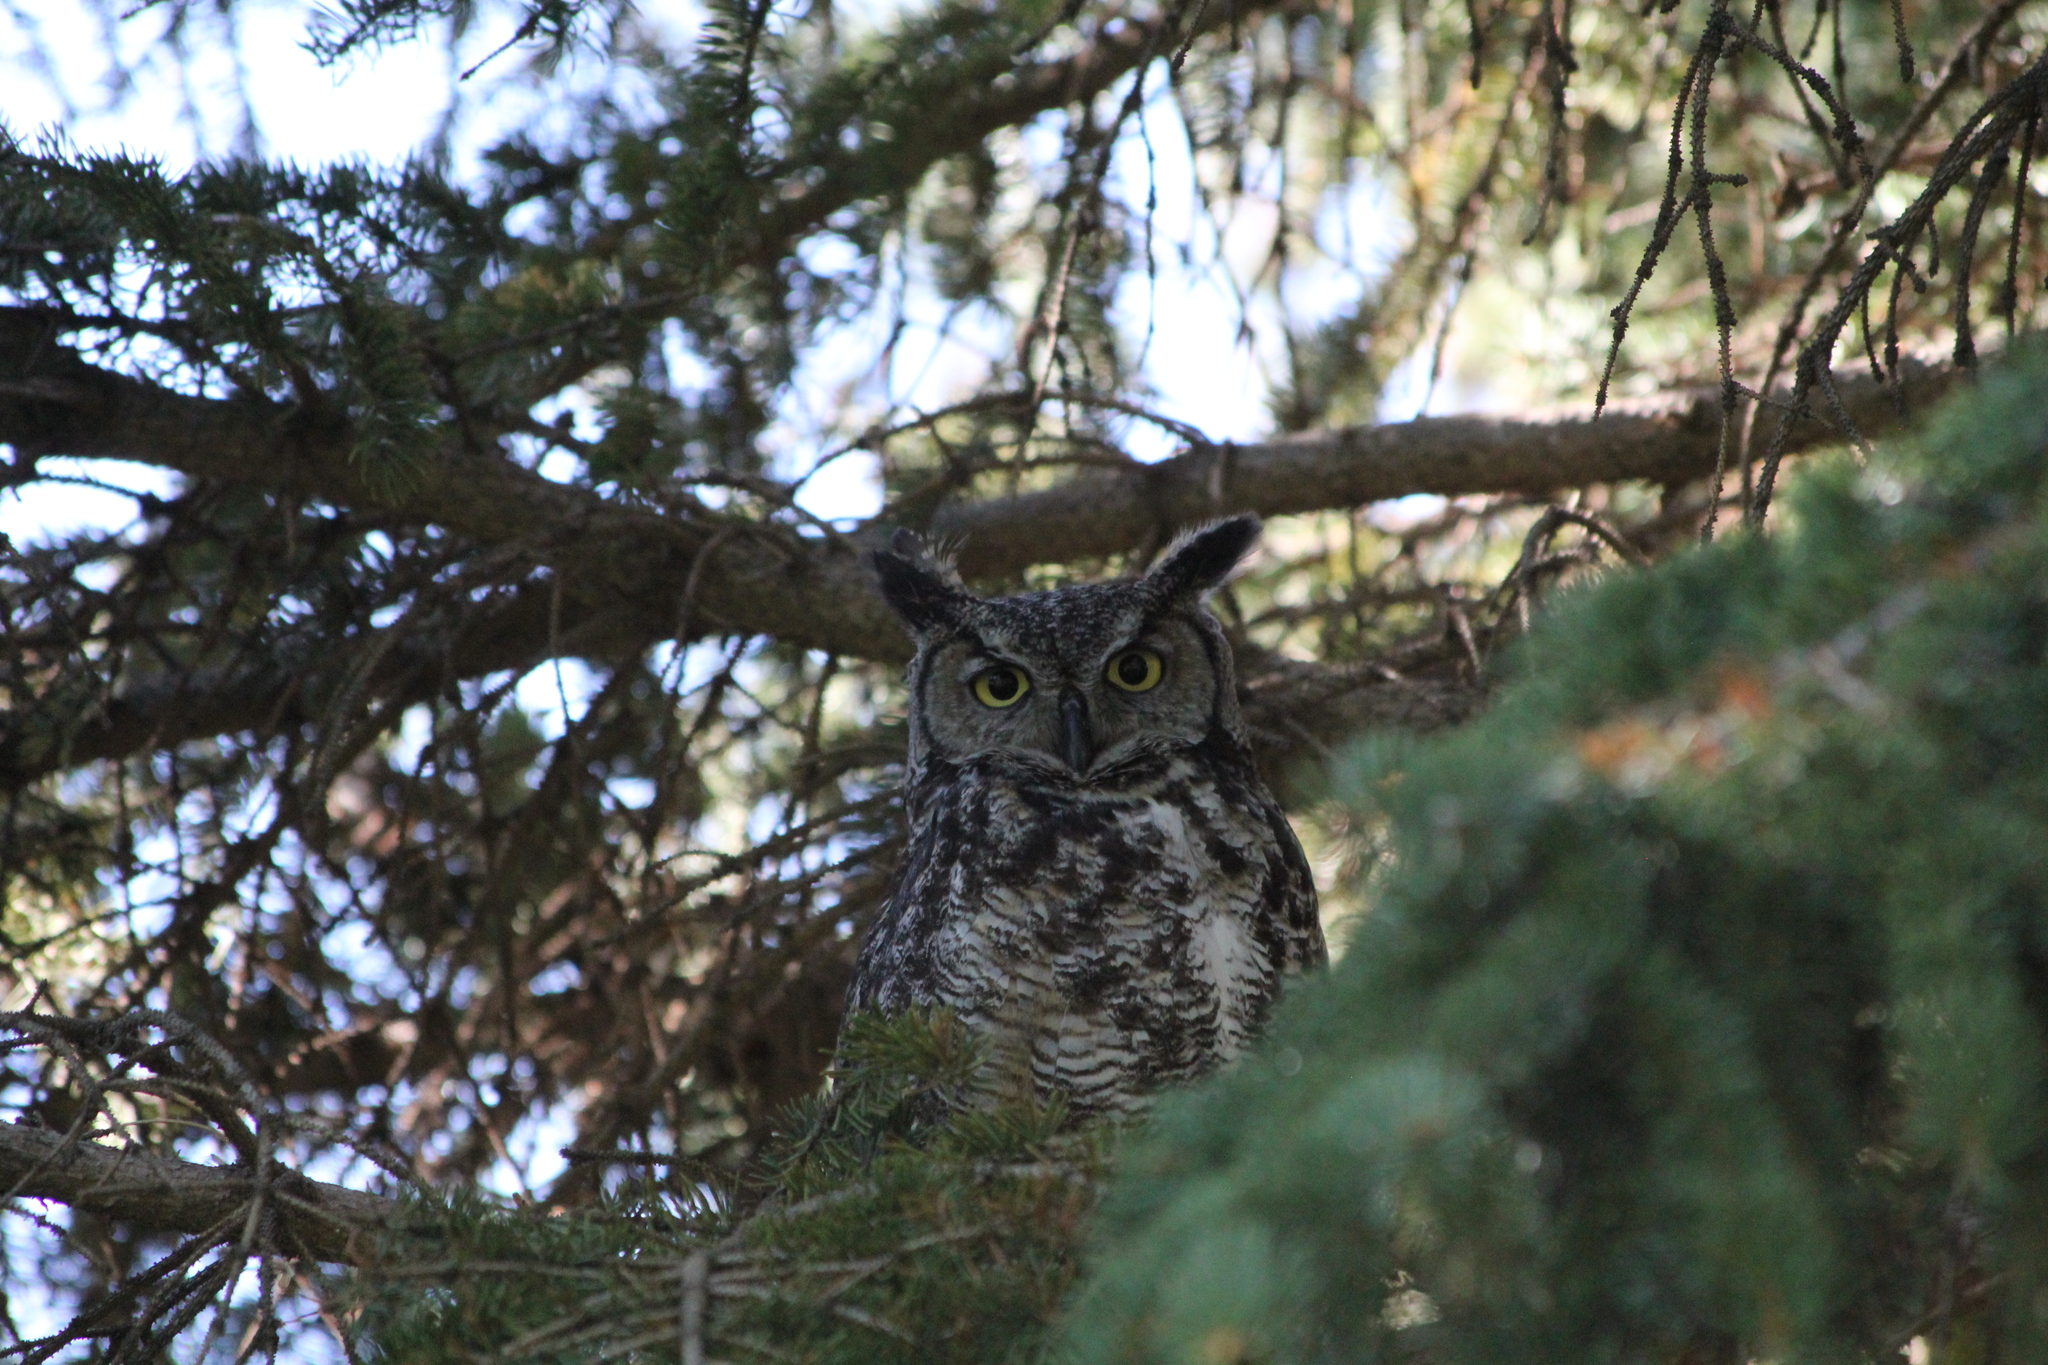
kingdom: Animalia
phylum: Chordata
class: Aves
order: Strigiformes
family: Strigidae
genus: Bubo
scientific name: Bubo virginianus
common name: Great horned owl
